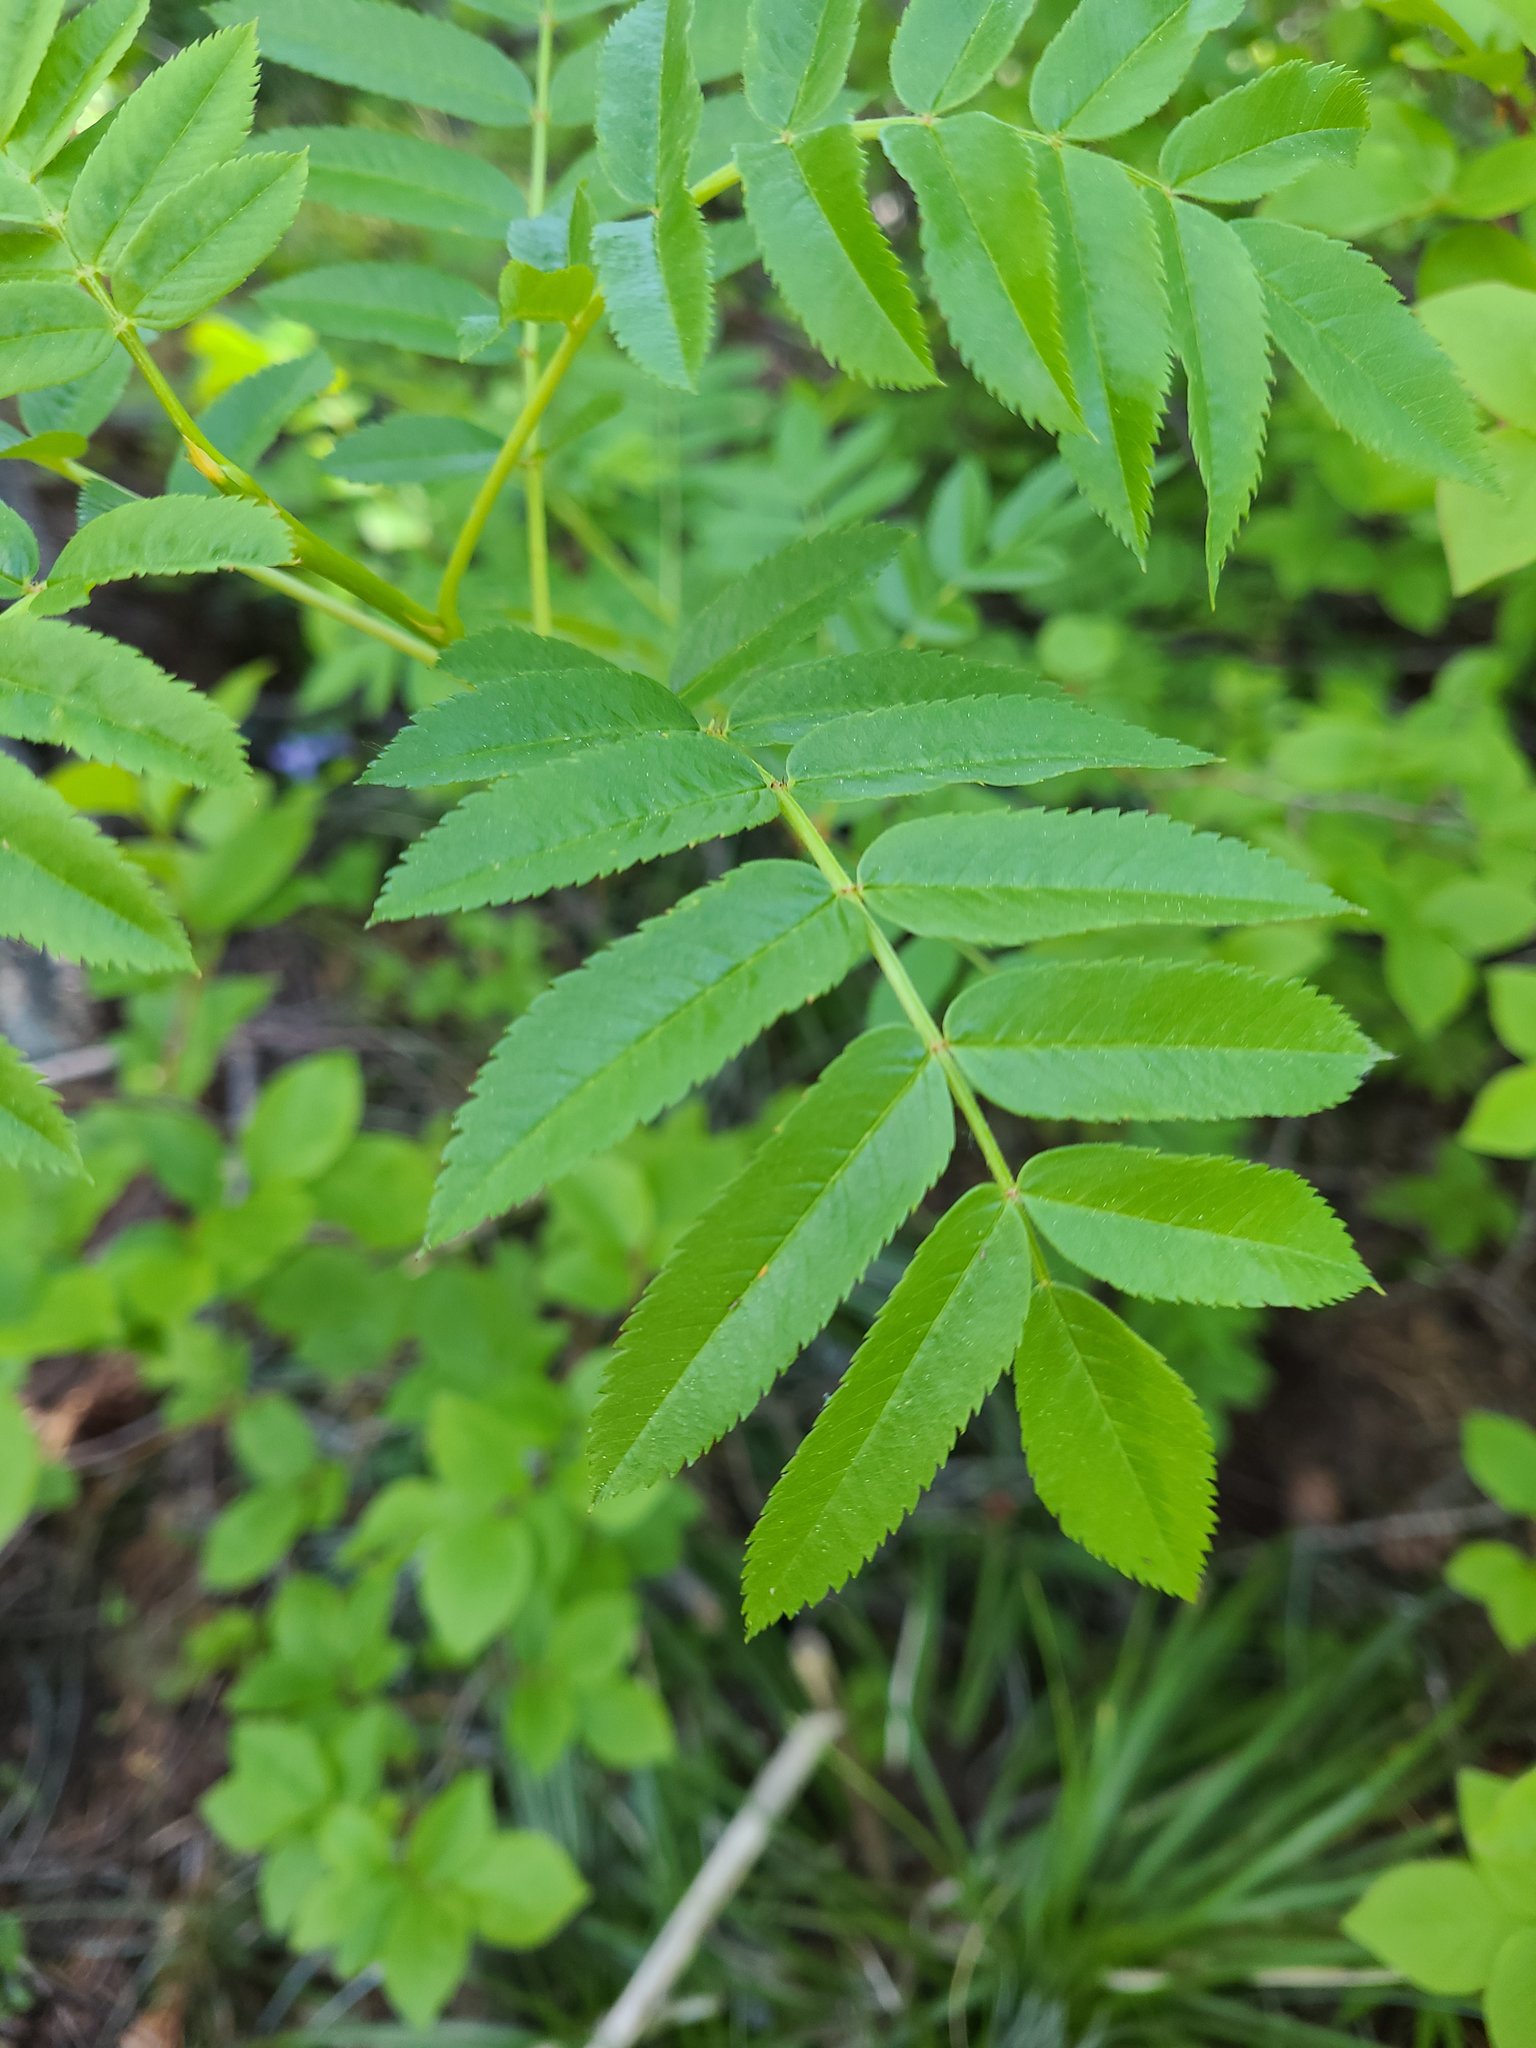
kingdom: Plantae
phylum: Tracheophyta
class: Magnoliopsida
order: Rosales
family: Rosaceae
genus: Sorbus
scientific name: Sorbus scopulina
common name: Greene's mountain-ash
